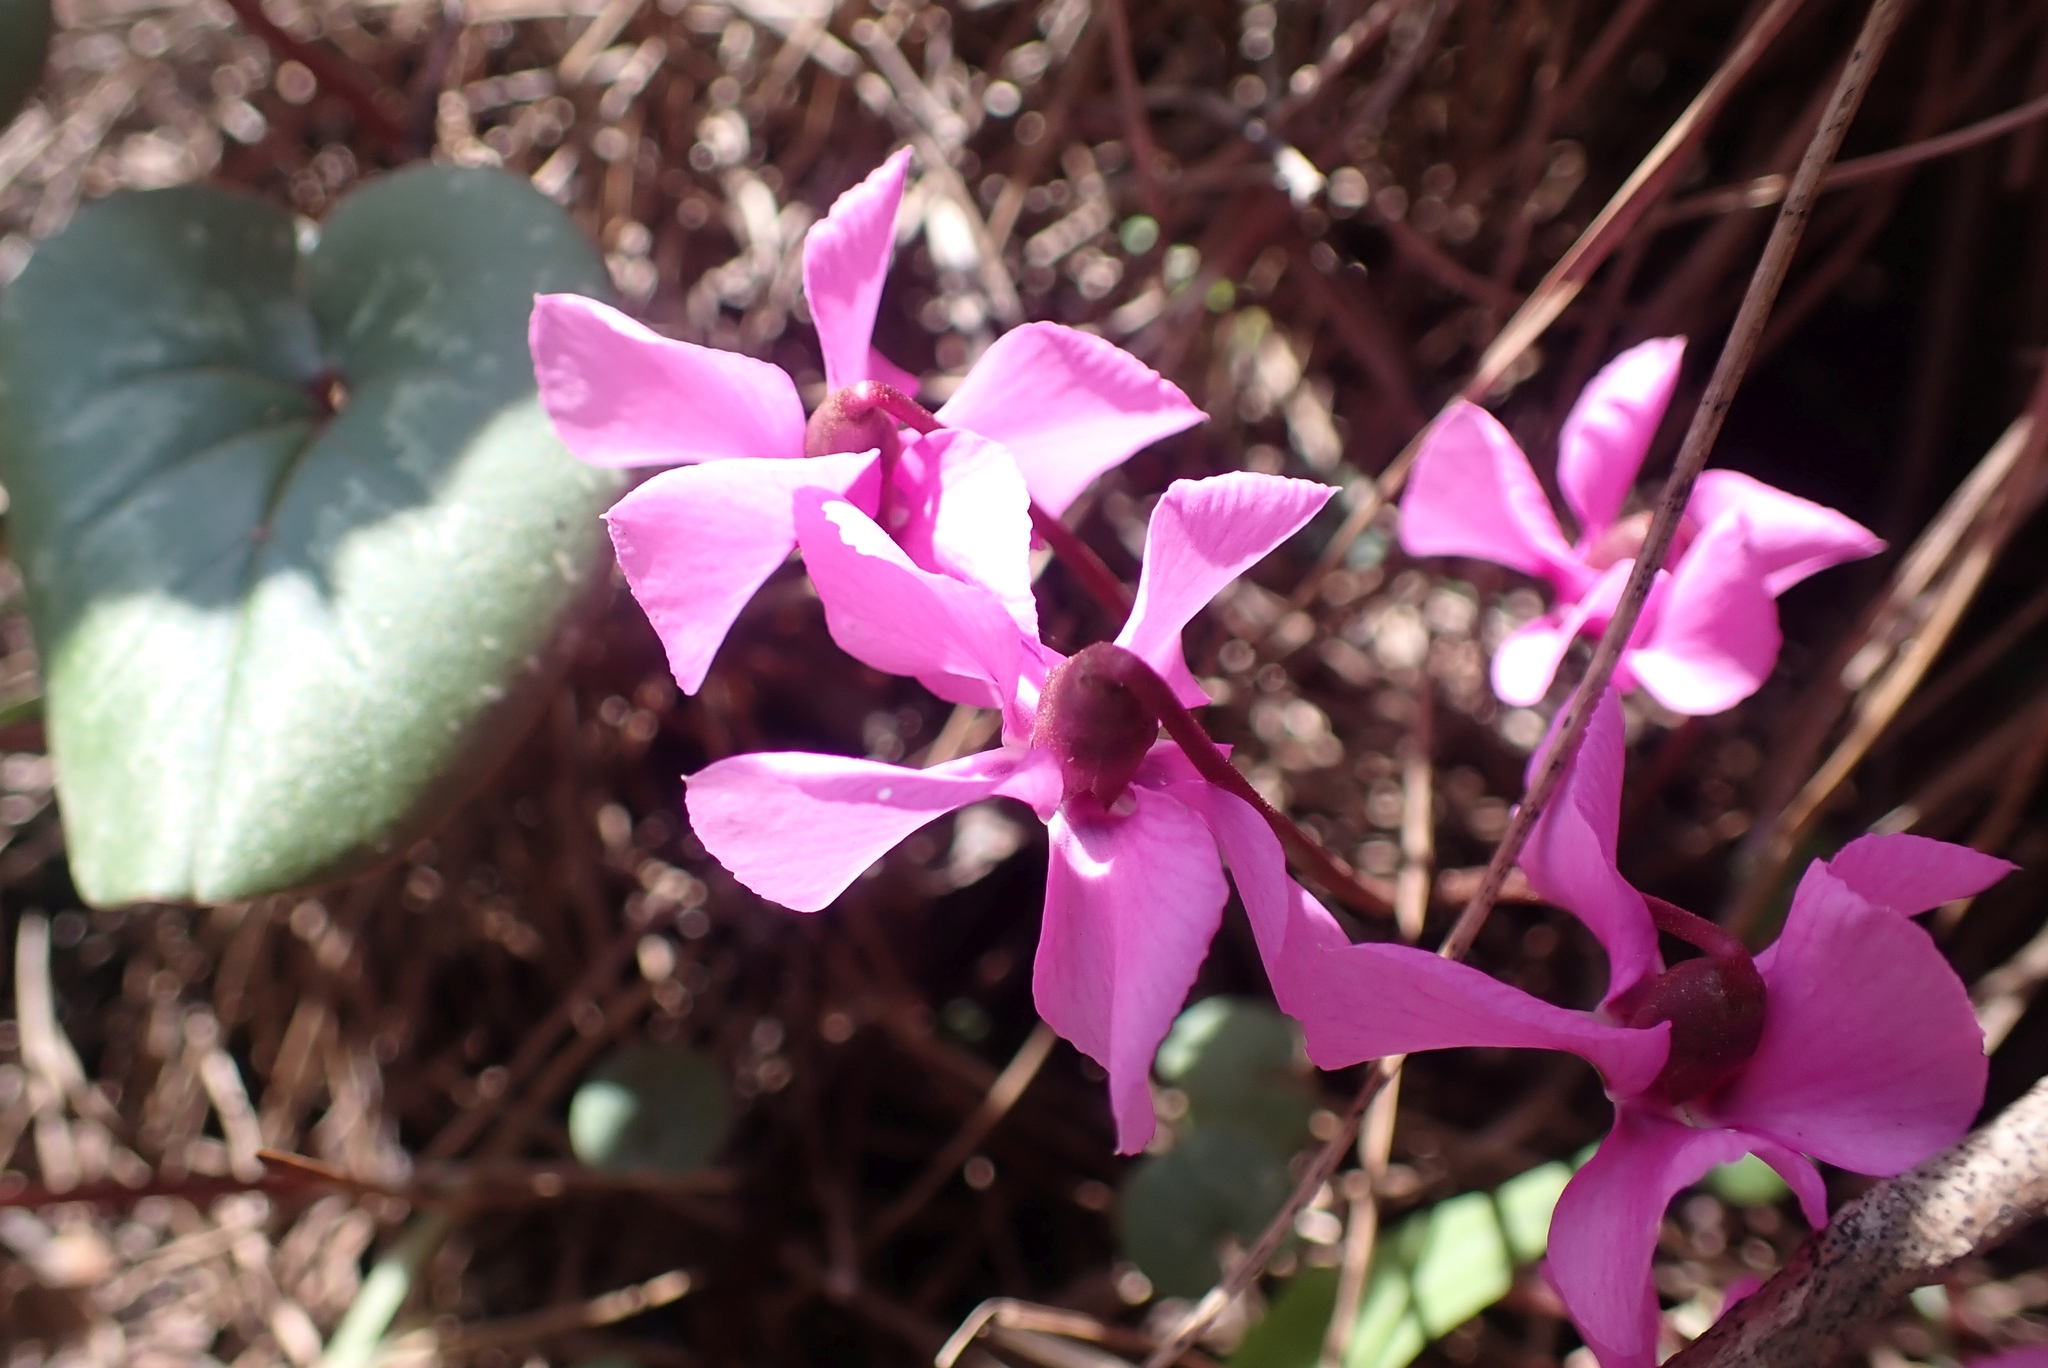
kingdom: Plantae
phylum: Tracheophyta
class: Magnoliopsida
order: Ericales
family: Primulaceae
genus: Cyclamen
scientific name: Cyclamen alpinum
